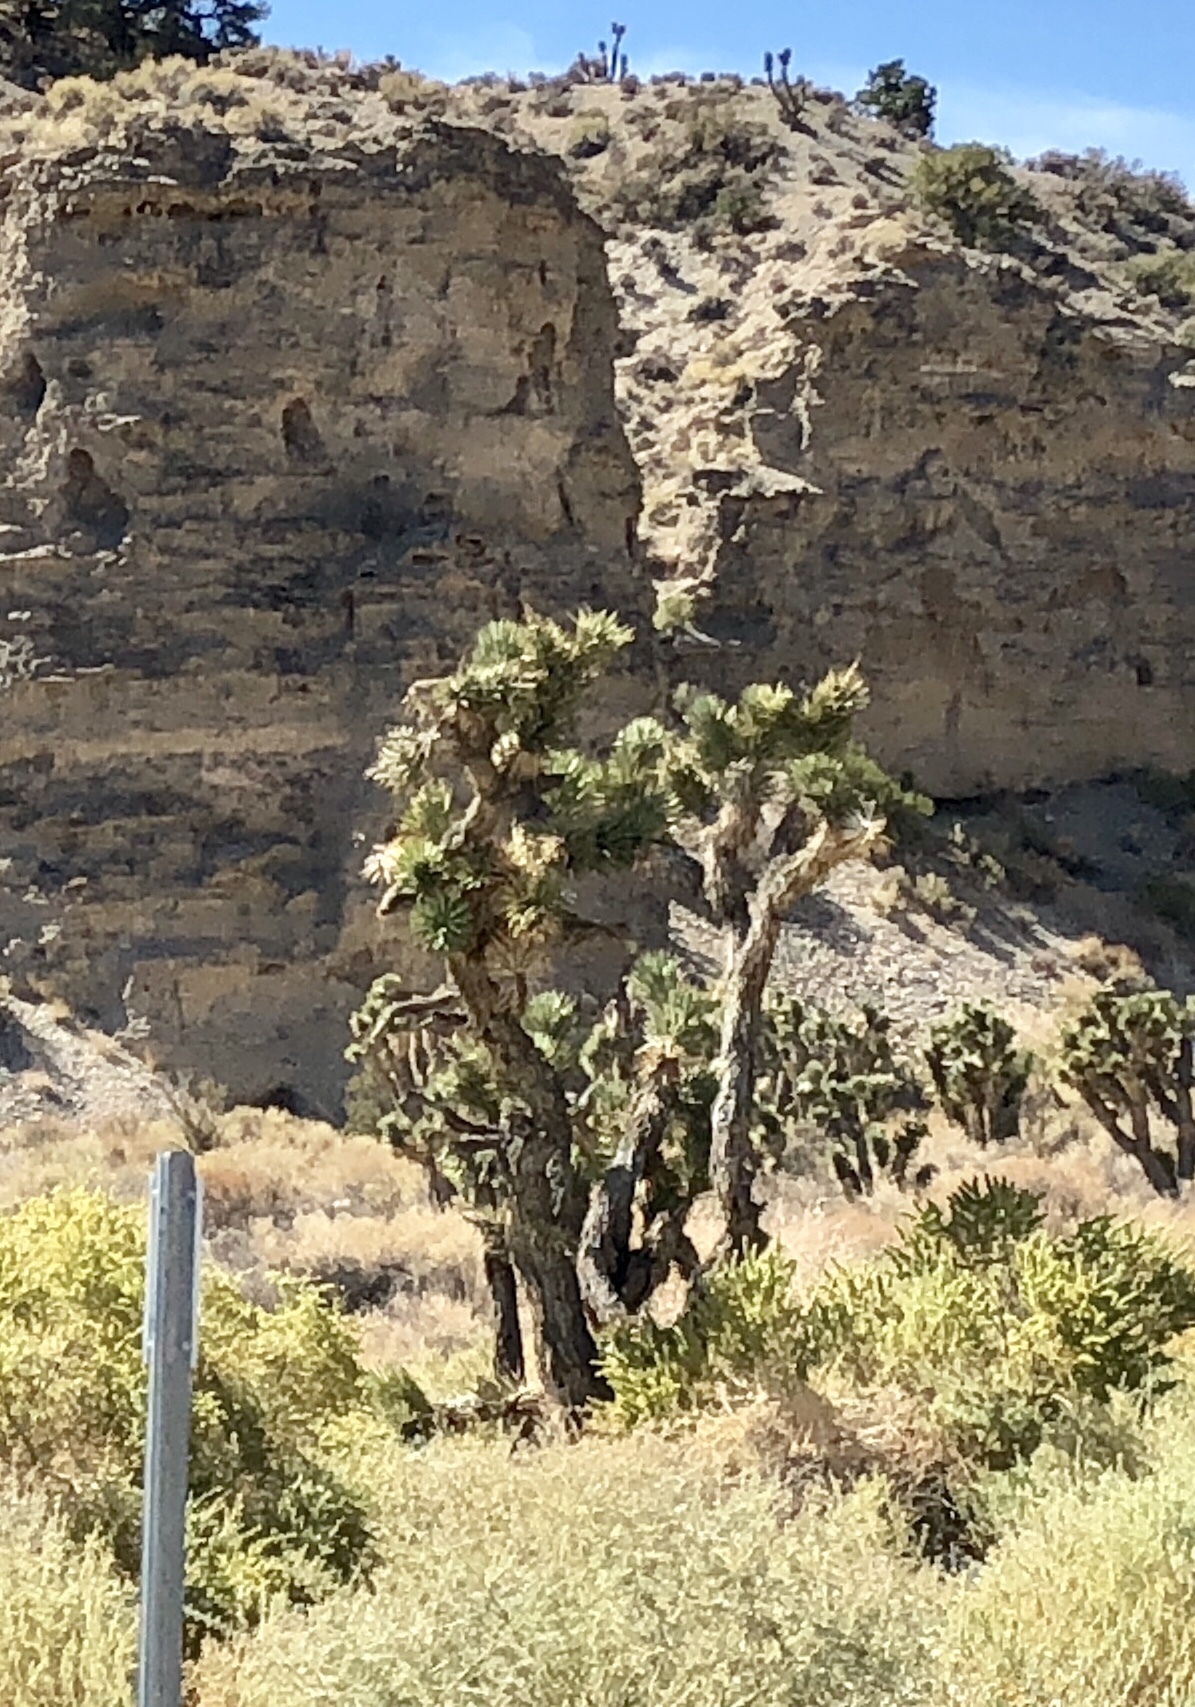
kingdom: Plantae
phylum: Tracheophyta
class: Liliopsida
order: Asparagales
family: Asparagaceae
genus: Yucca
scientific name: Yucca brevifolia
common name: Joshua tree
